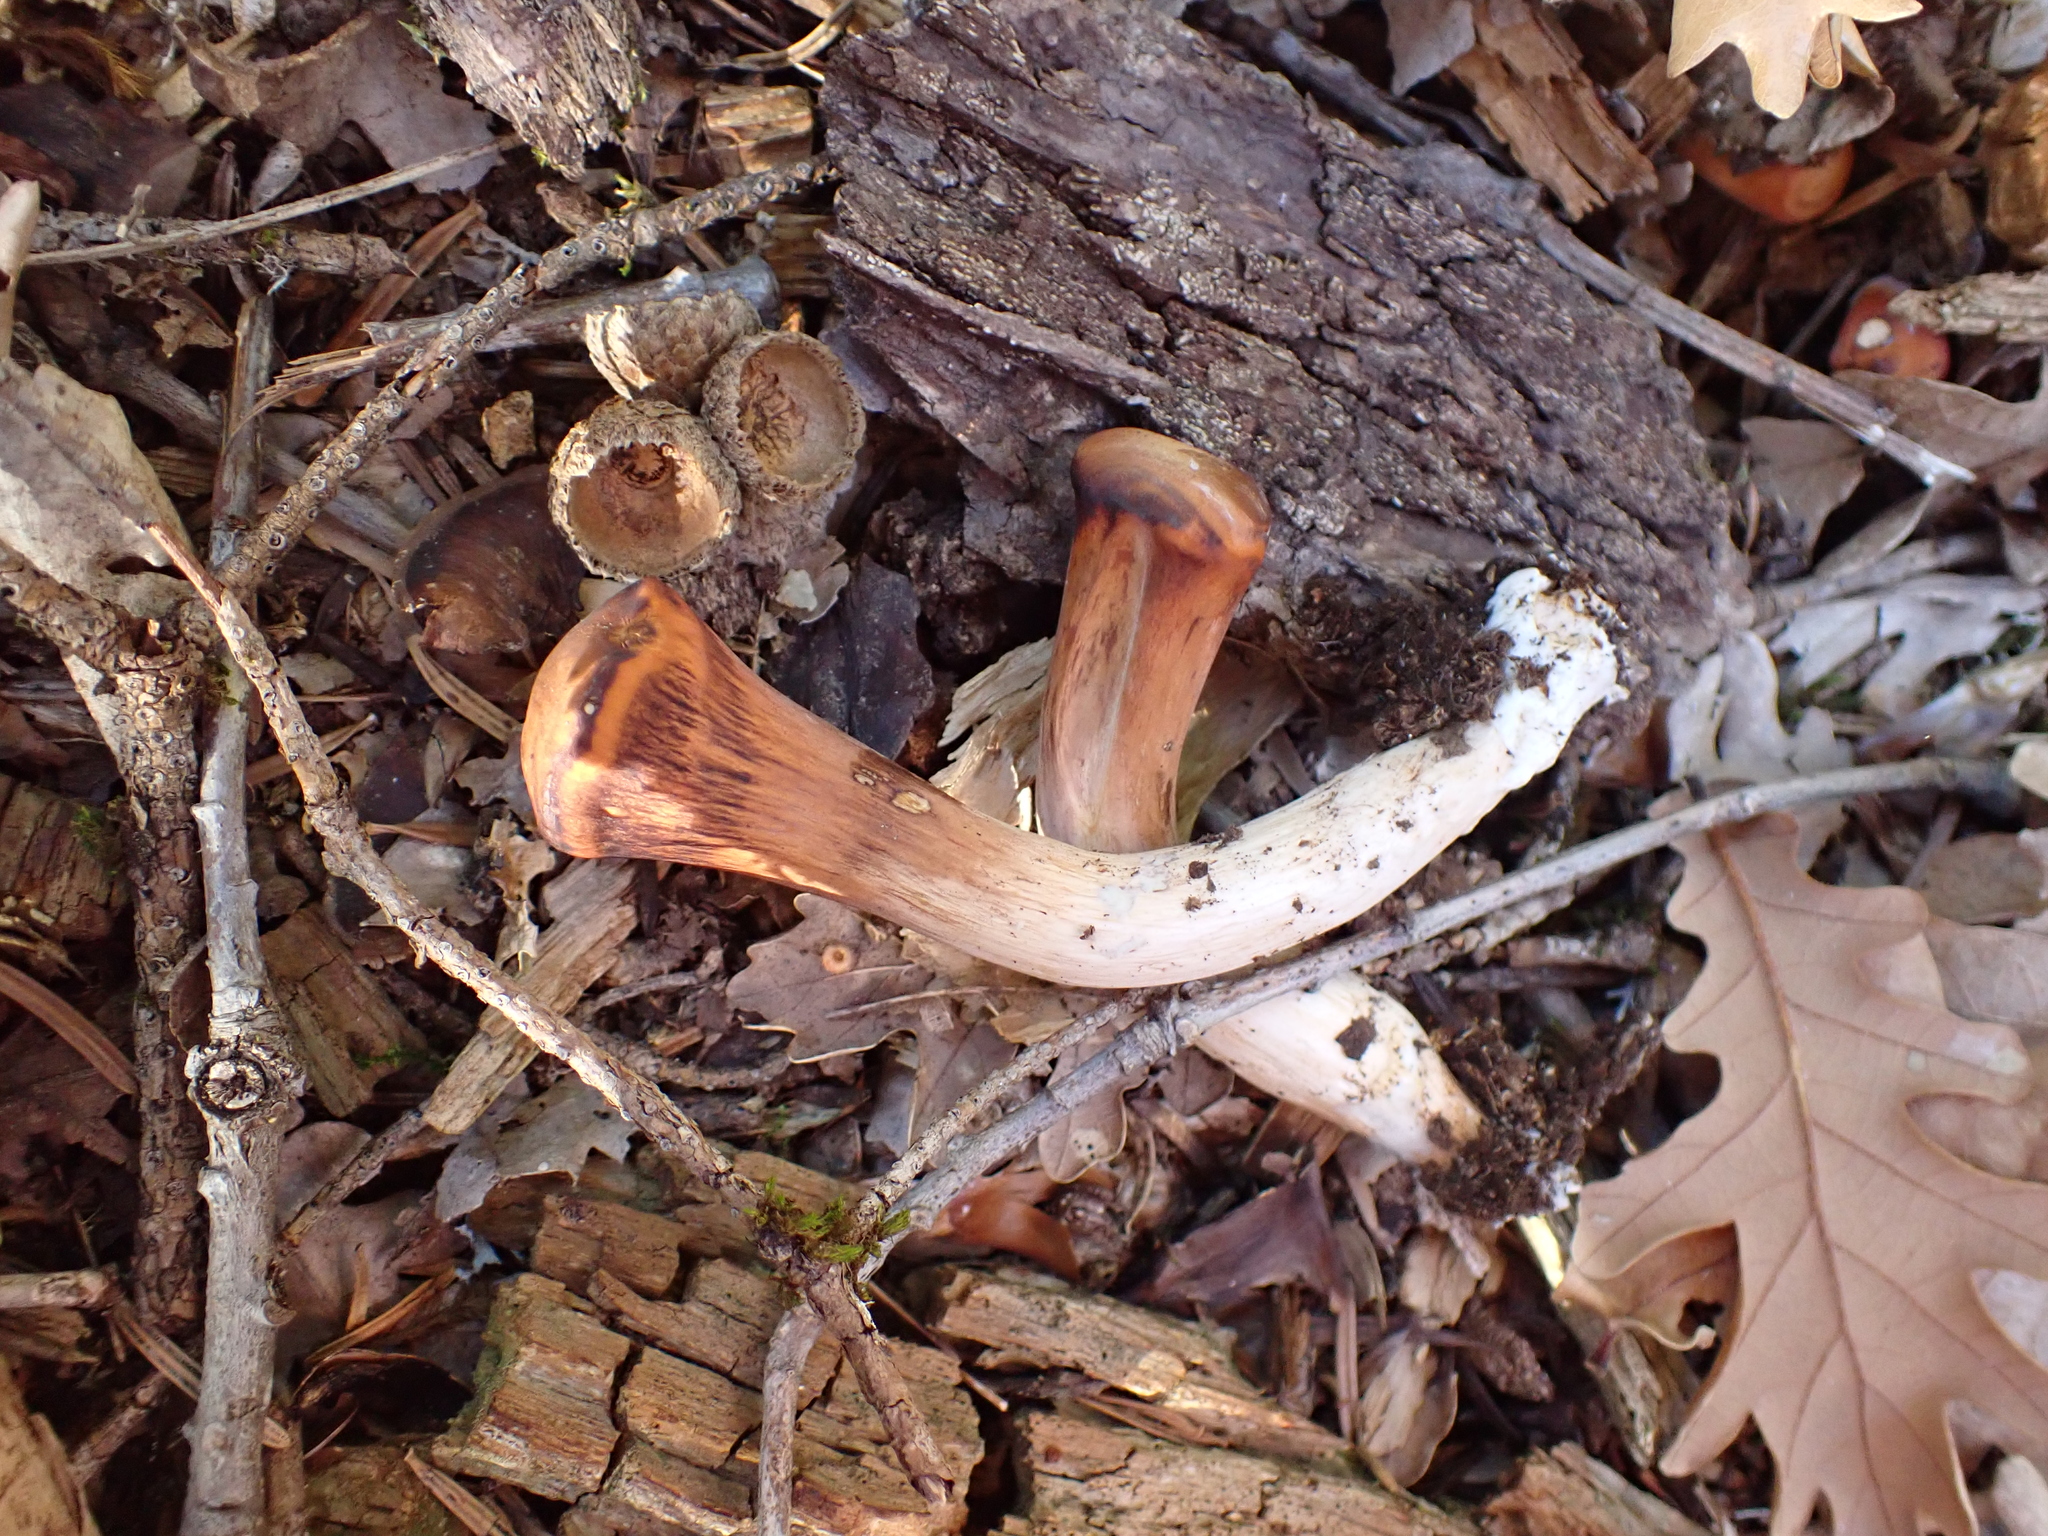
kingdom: Fungi
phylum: Basidiomycota
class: Agaricomycetes
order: Gomphales
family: Clavariadelphaceae
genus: Clavariadelphus
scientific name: Clavariadelphus truncatus
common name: Truncated club
